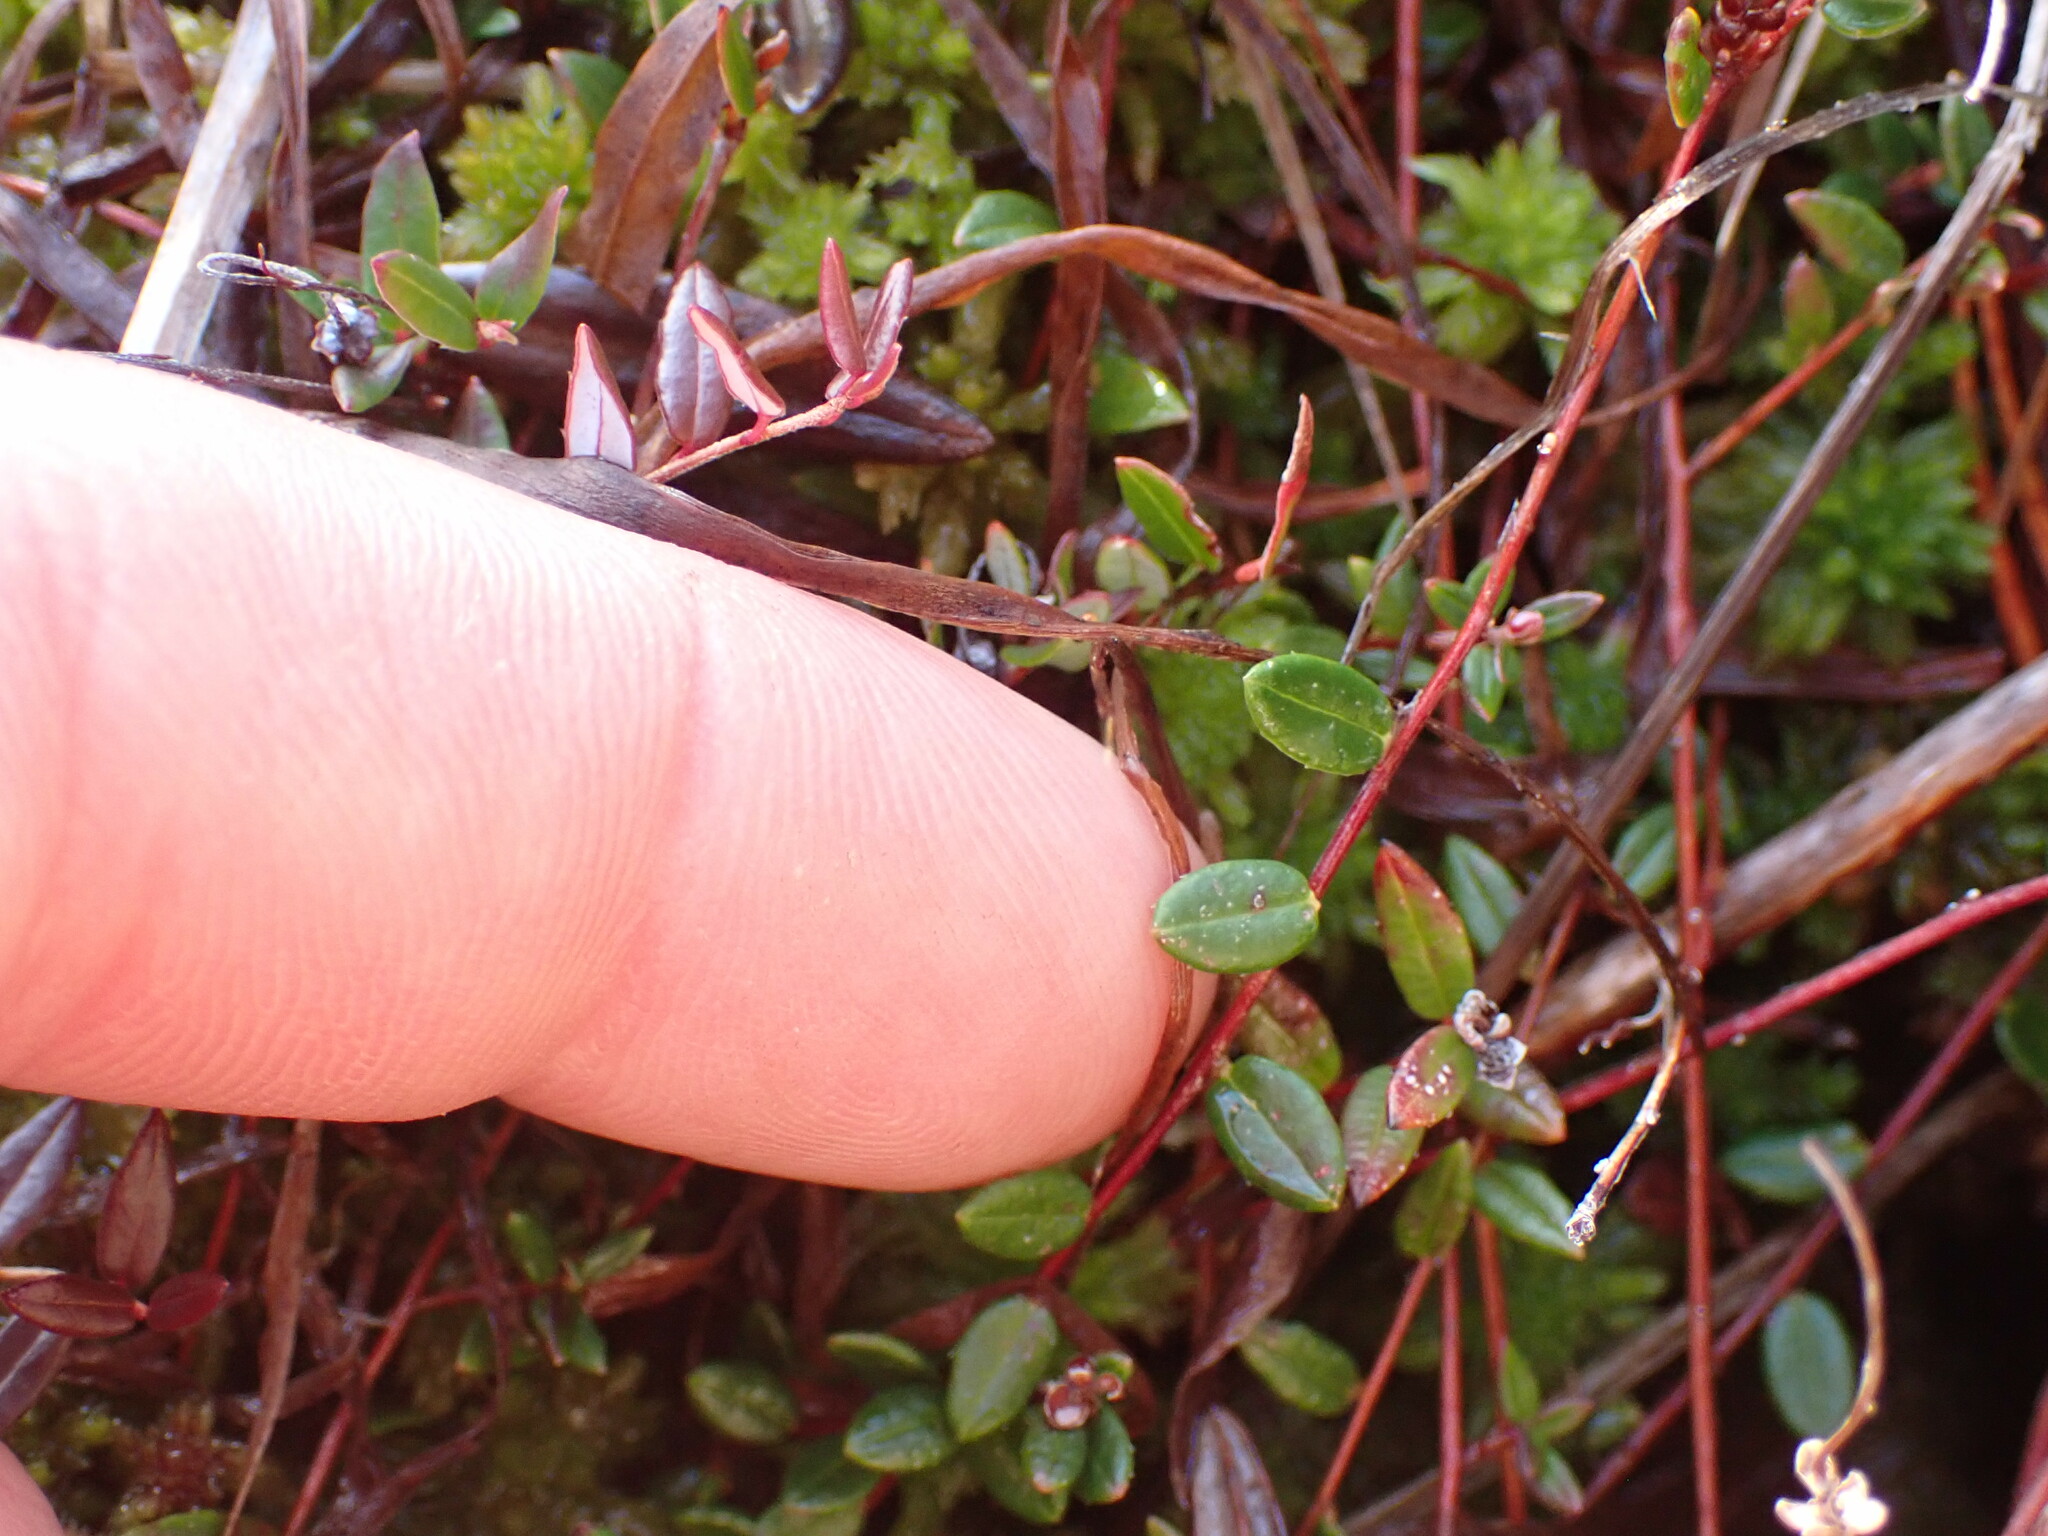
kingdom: Plantae
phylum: Tracheophyta
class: Magnoliopsida
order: Ericales
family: Ericaceae
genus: Vaccinium
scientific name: Vaccinium oxycoccos
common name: Cranberry
